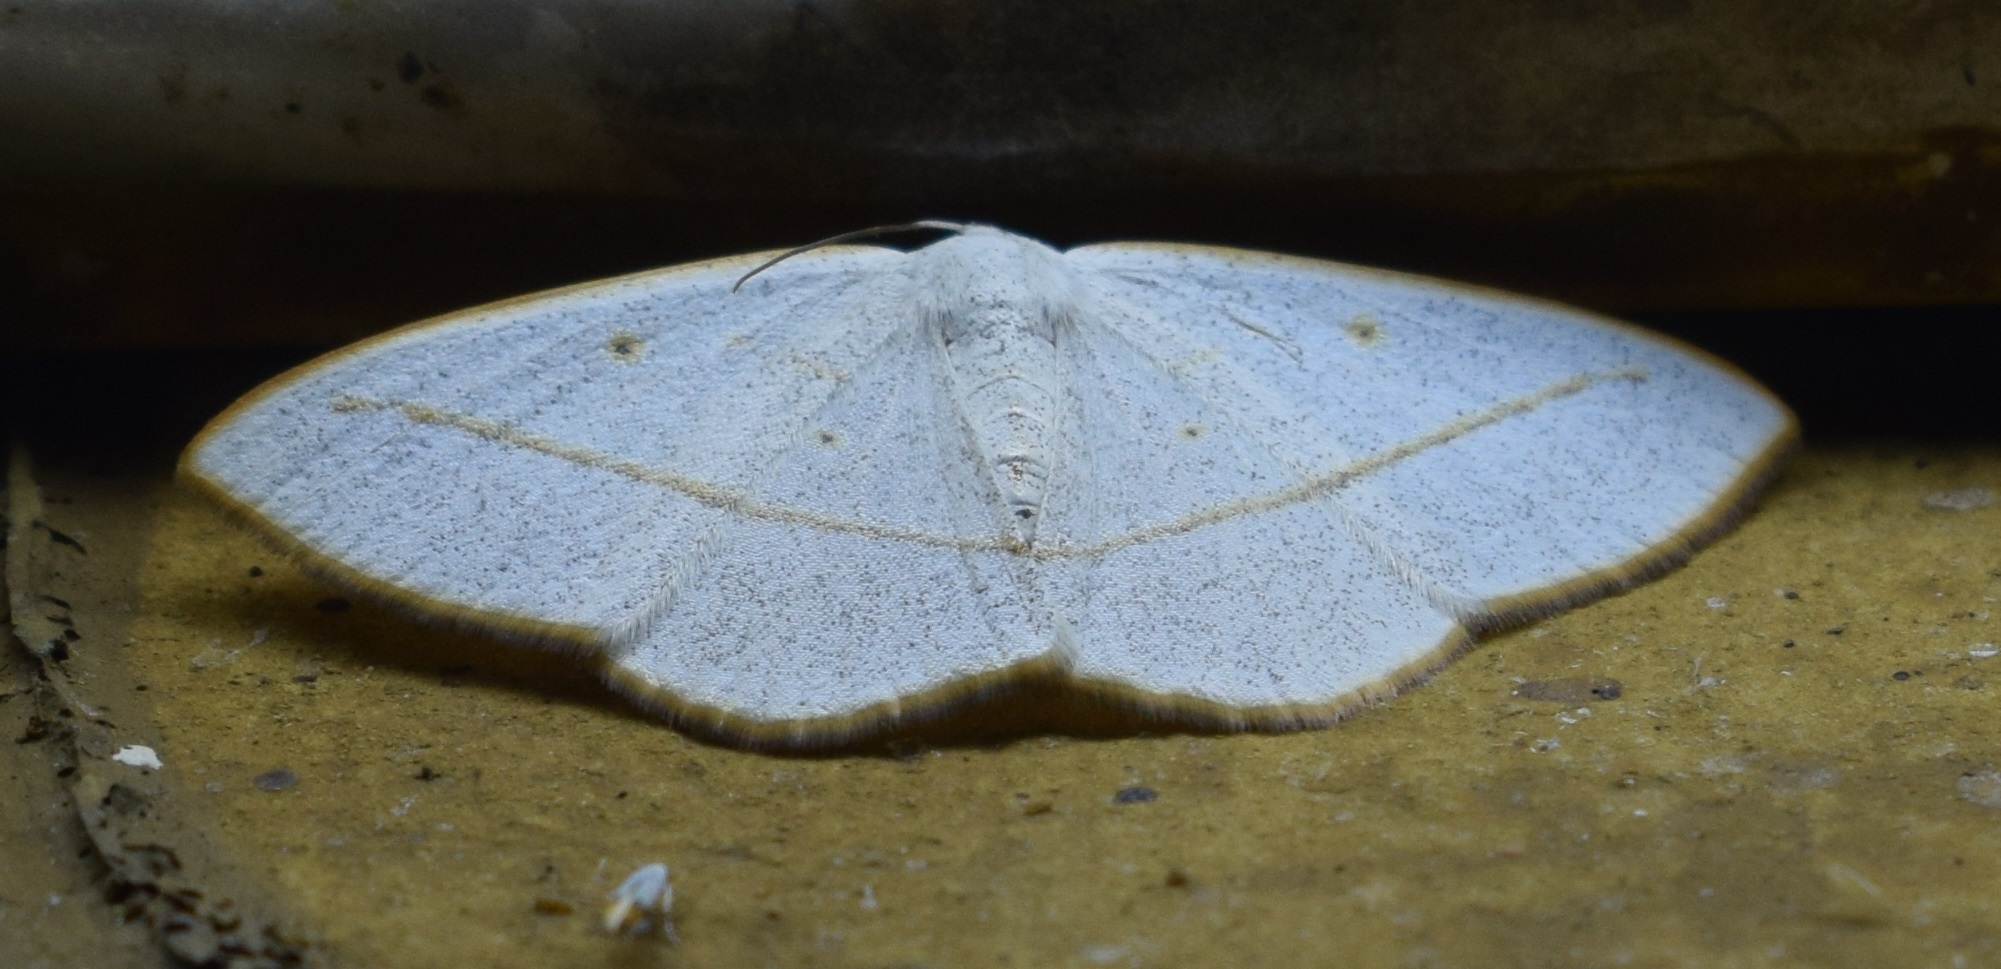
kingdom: Animalia
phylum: Arthropoda
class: Insecta
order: Lepidoptera
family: Geometridae
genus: Lomographa
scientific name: Lomographa inamata
